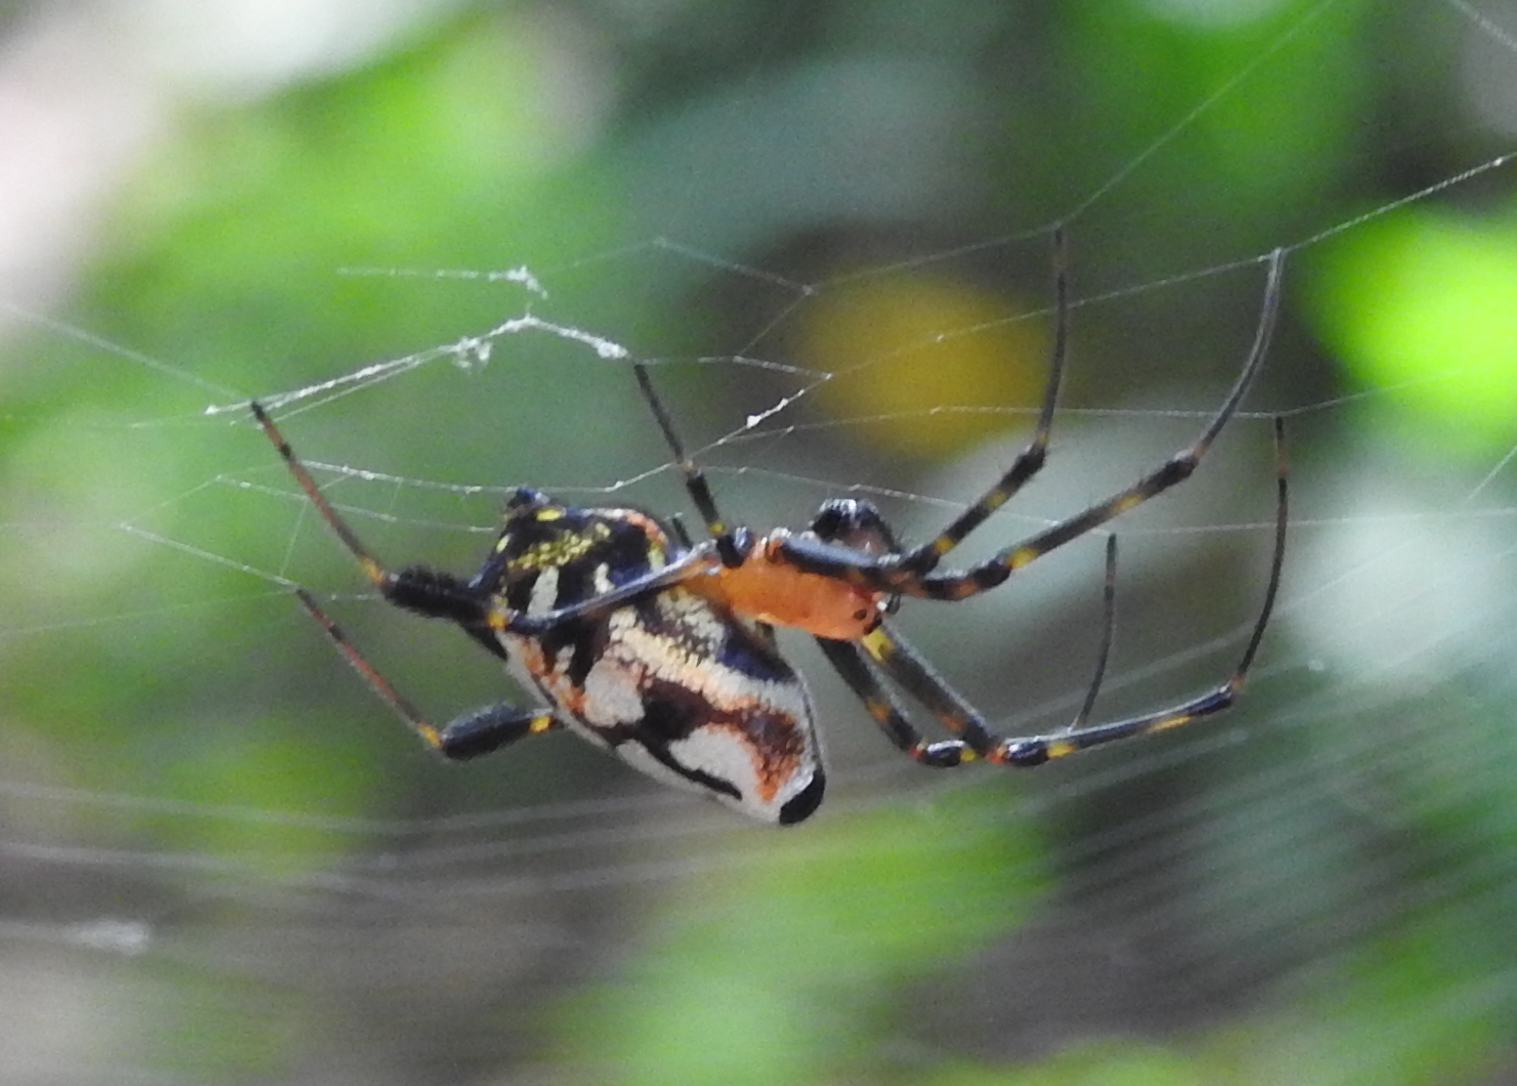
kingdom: Animalia
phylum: Arthropoda
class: Arachnida
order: Araneae
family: Tetragnathidae
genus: Leucauge
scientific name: Leucauge fastigata
